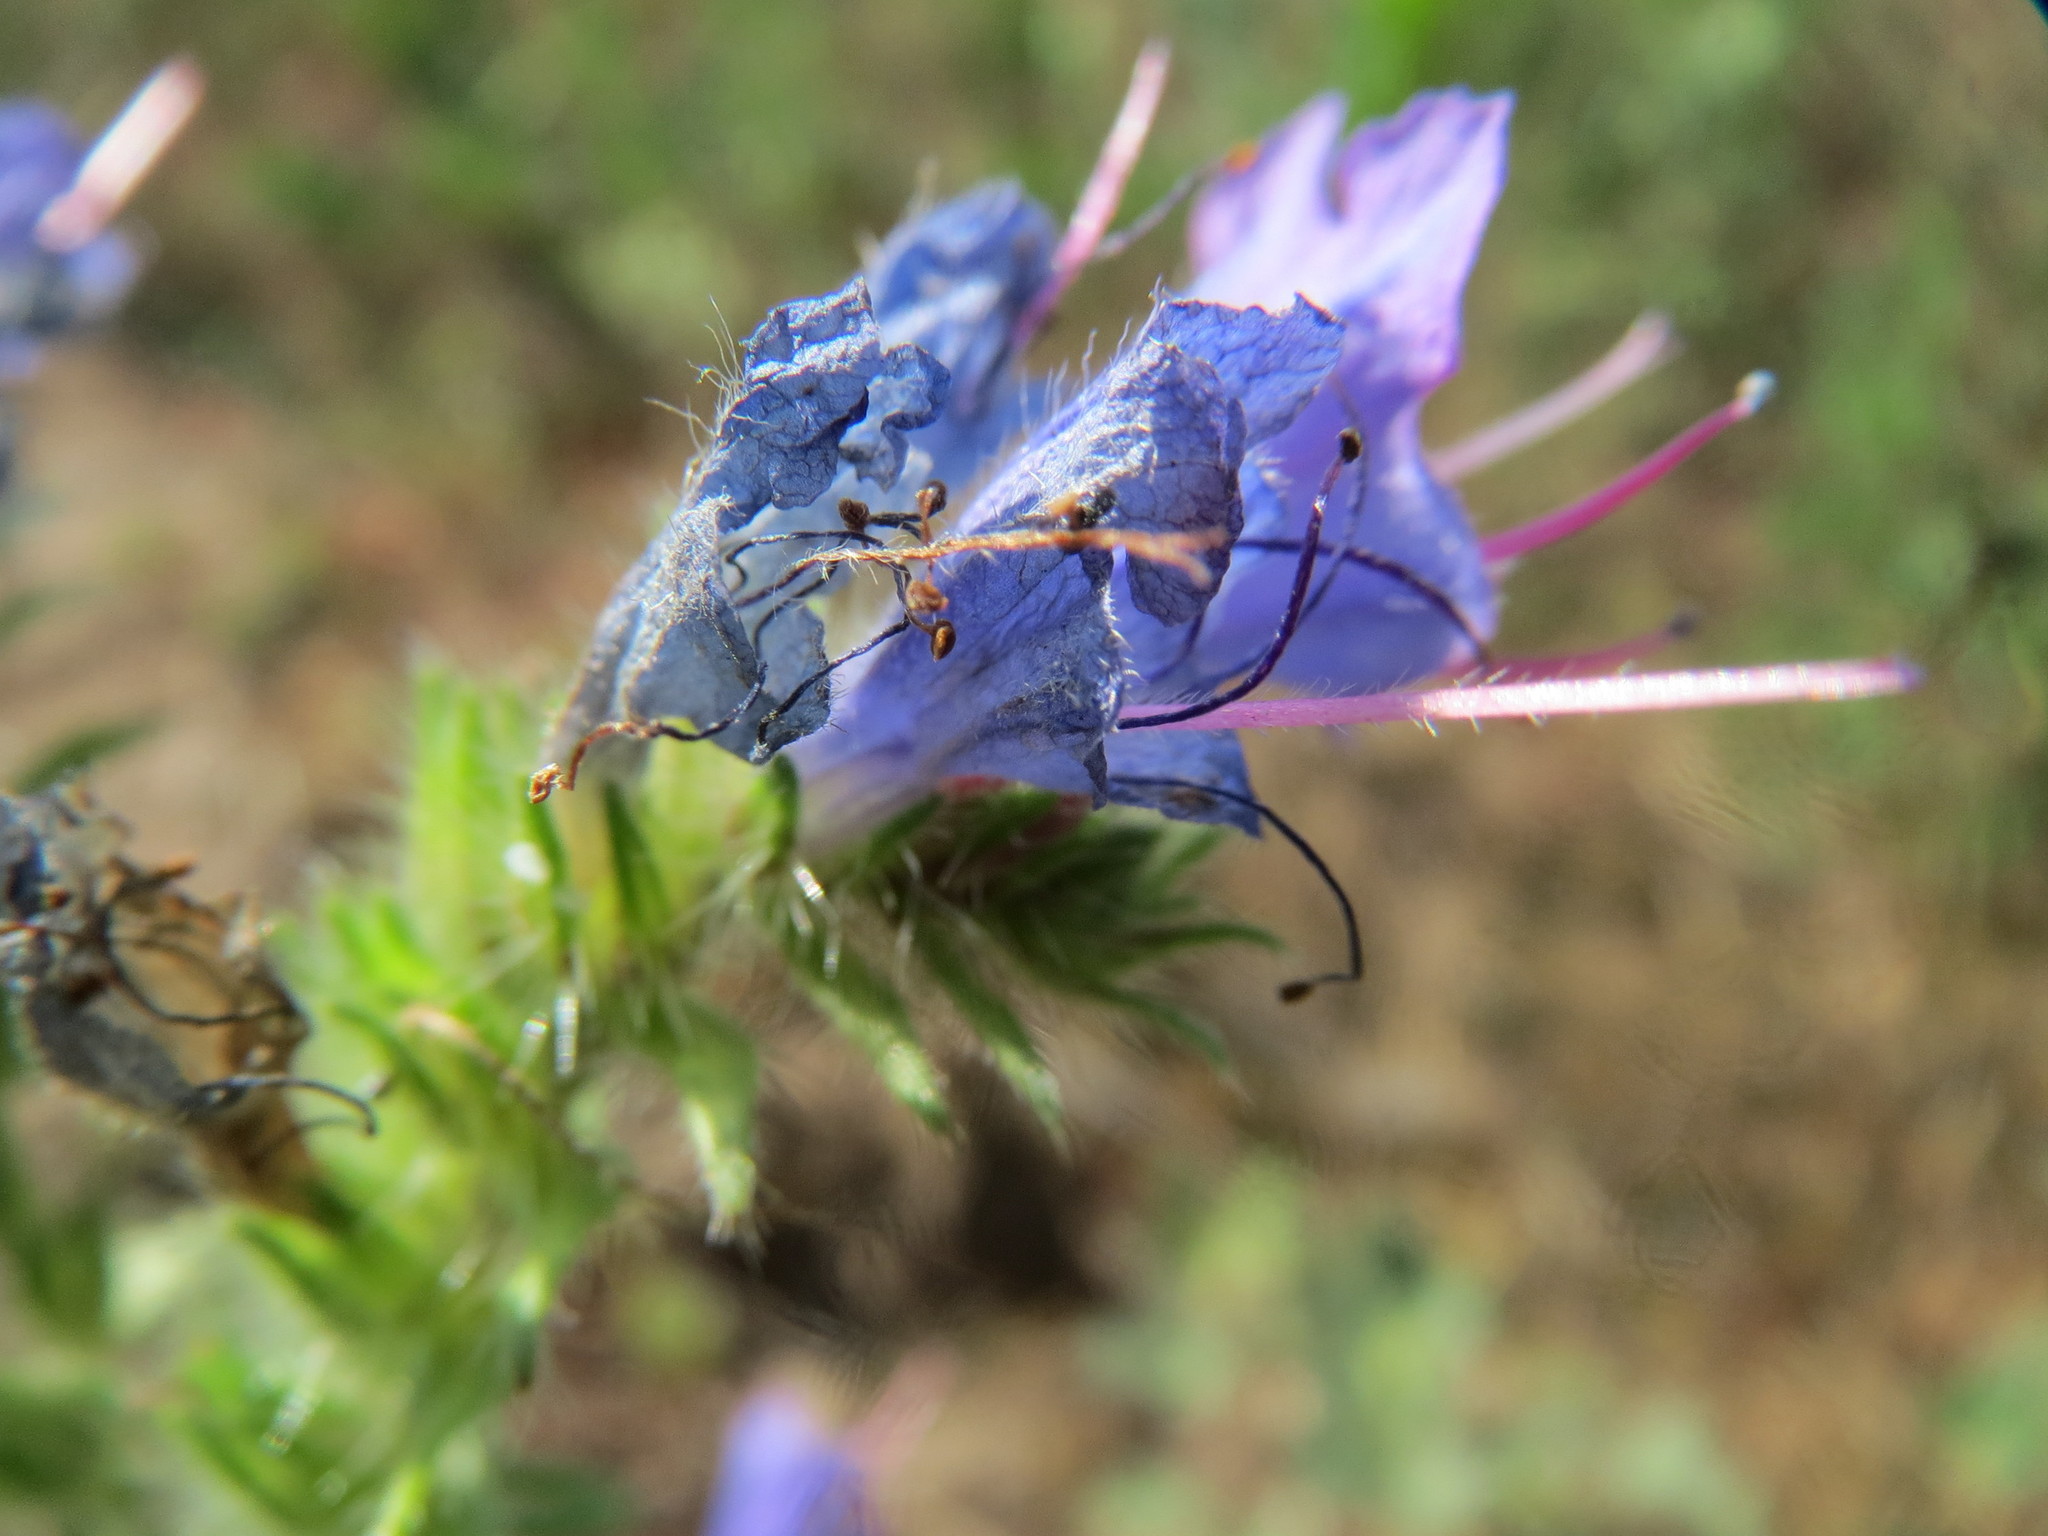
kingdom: Plantae
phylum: Tracheophyta
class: Magnoliopsida
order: Boraginales
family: Boraginaceae
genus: Echium
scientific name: Echium vulgare
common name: Common viper's bugloss
